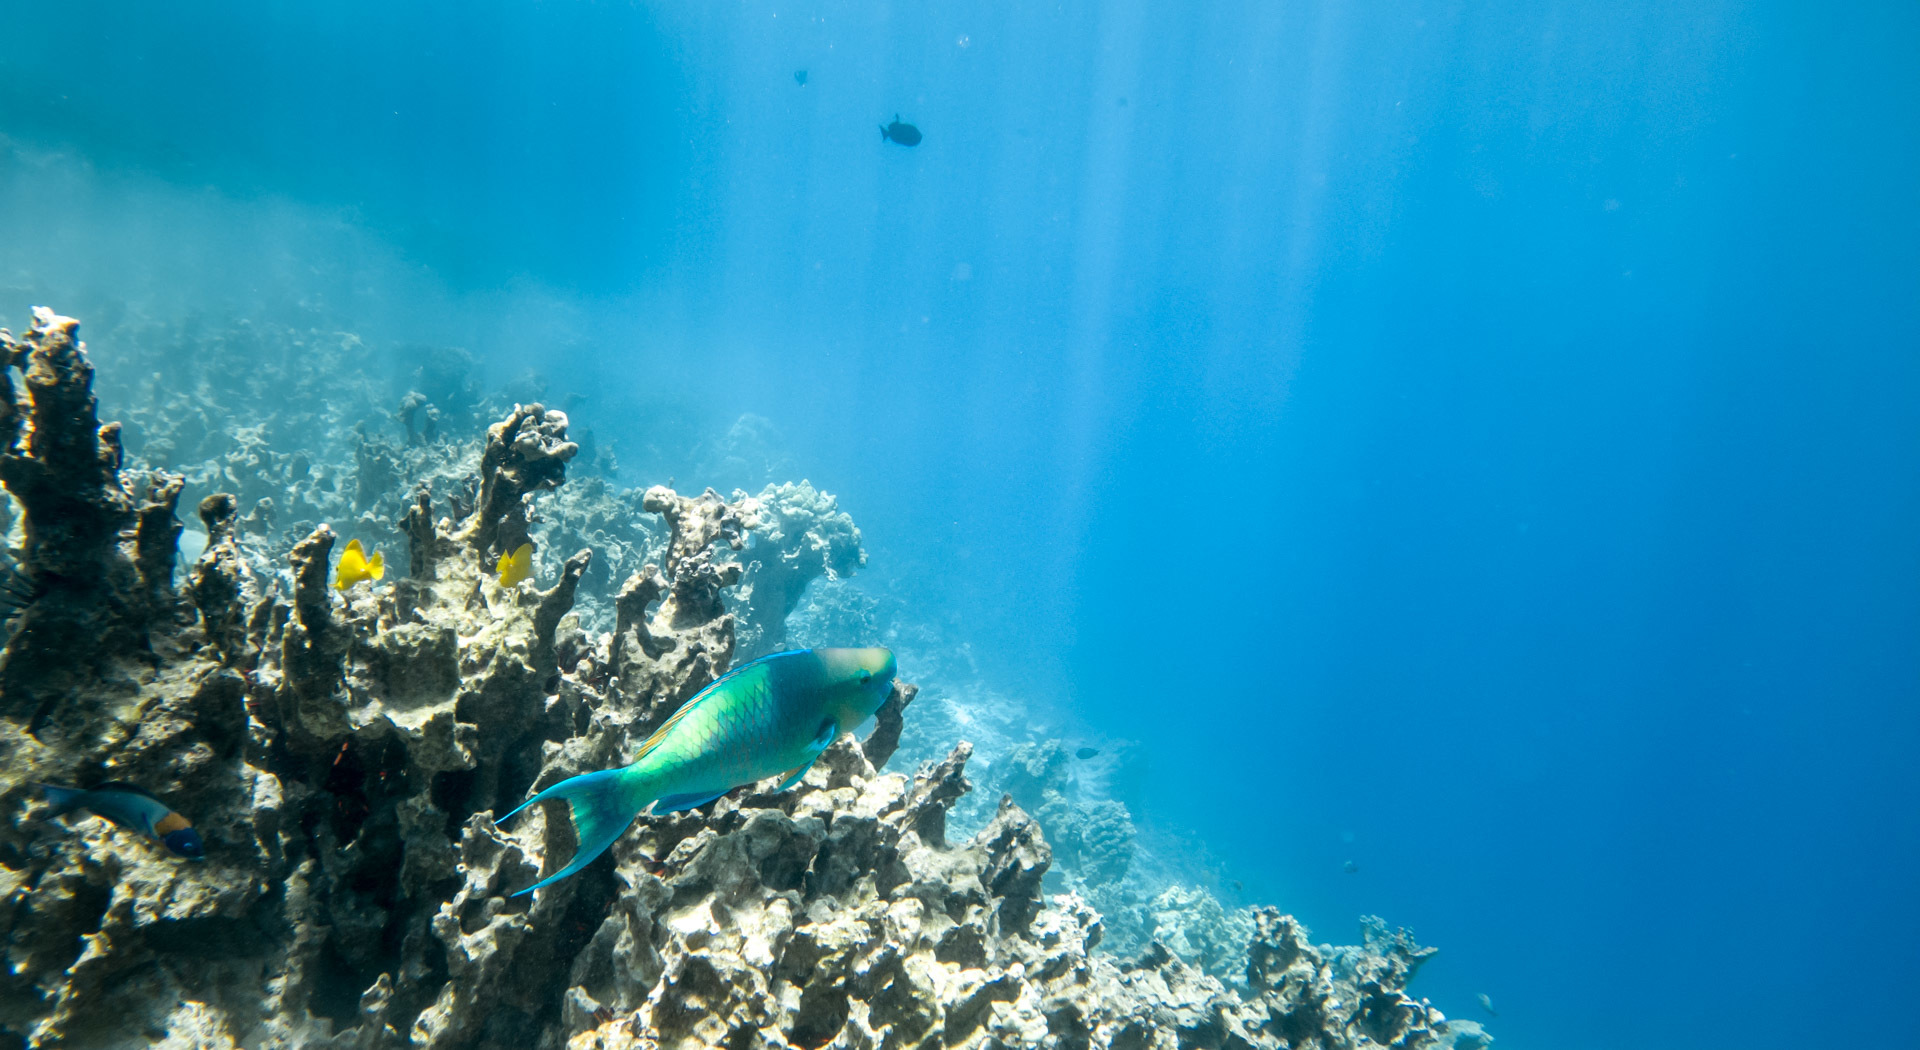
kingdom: Animalia
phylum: Chordata
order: Perciformes
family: Scaridae
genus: Scarus
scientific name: Scarus rubroviolaceus
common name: Ember parrotfish
